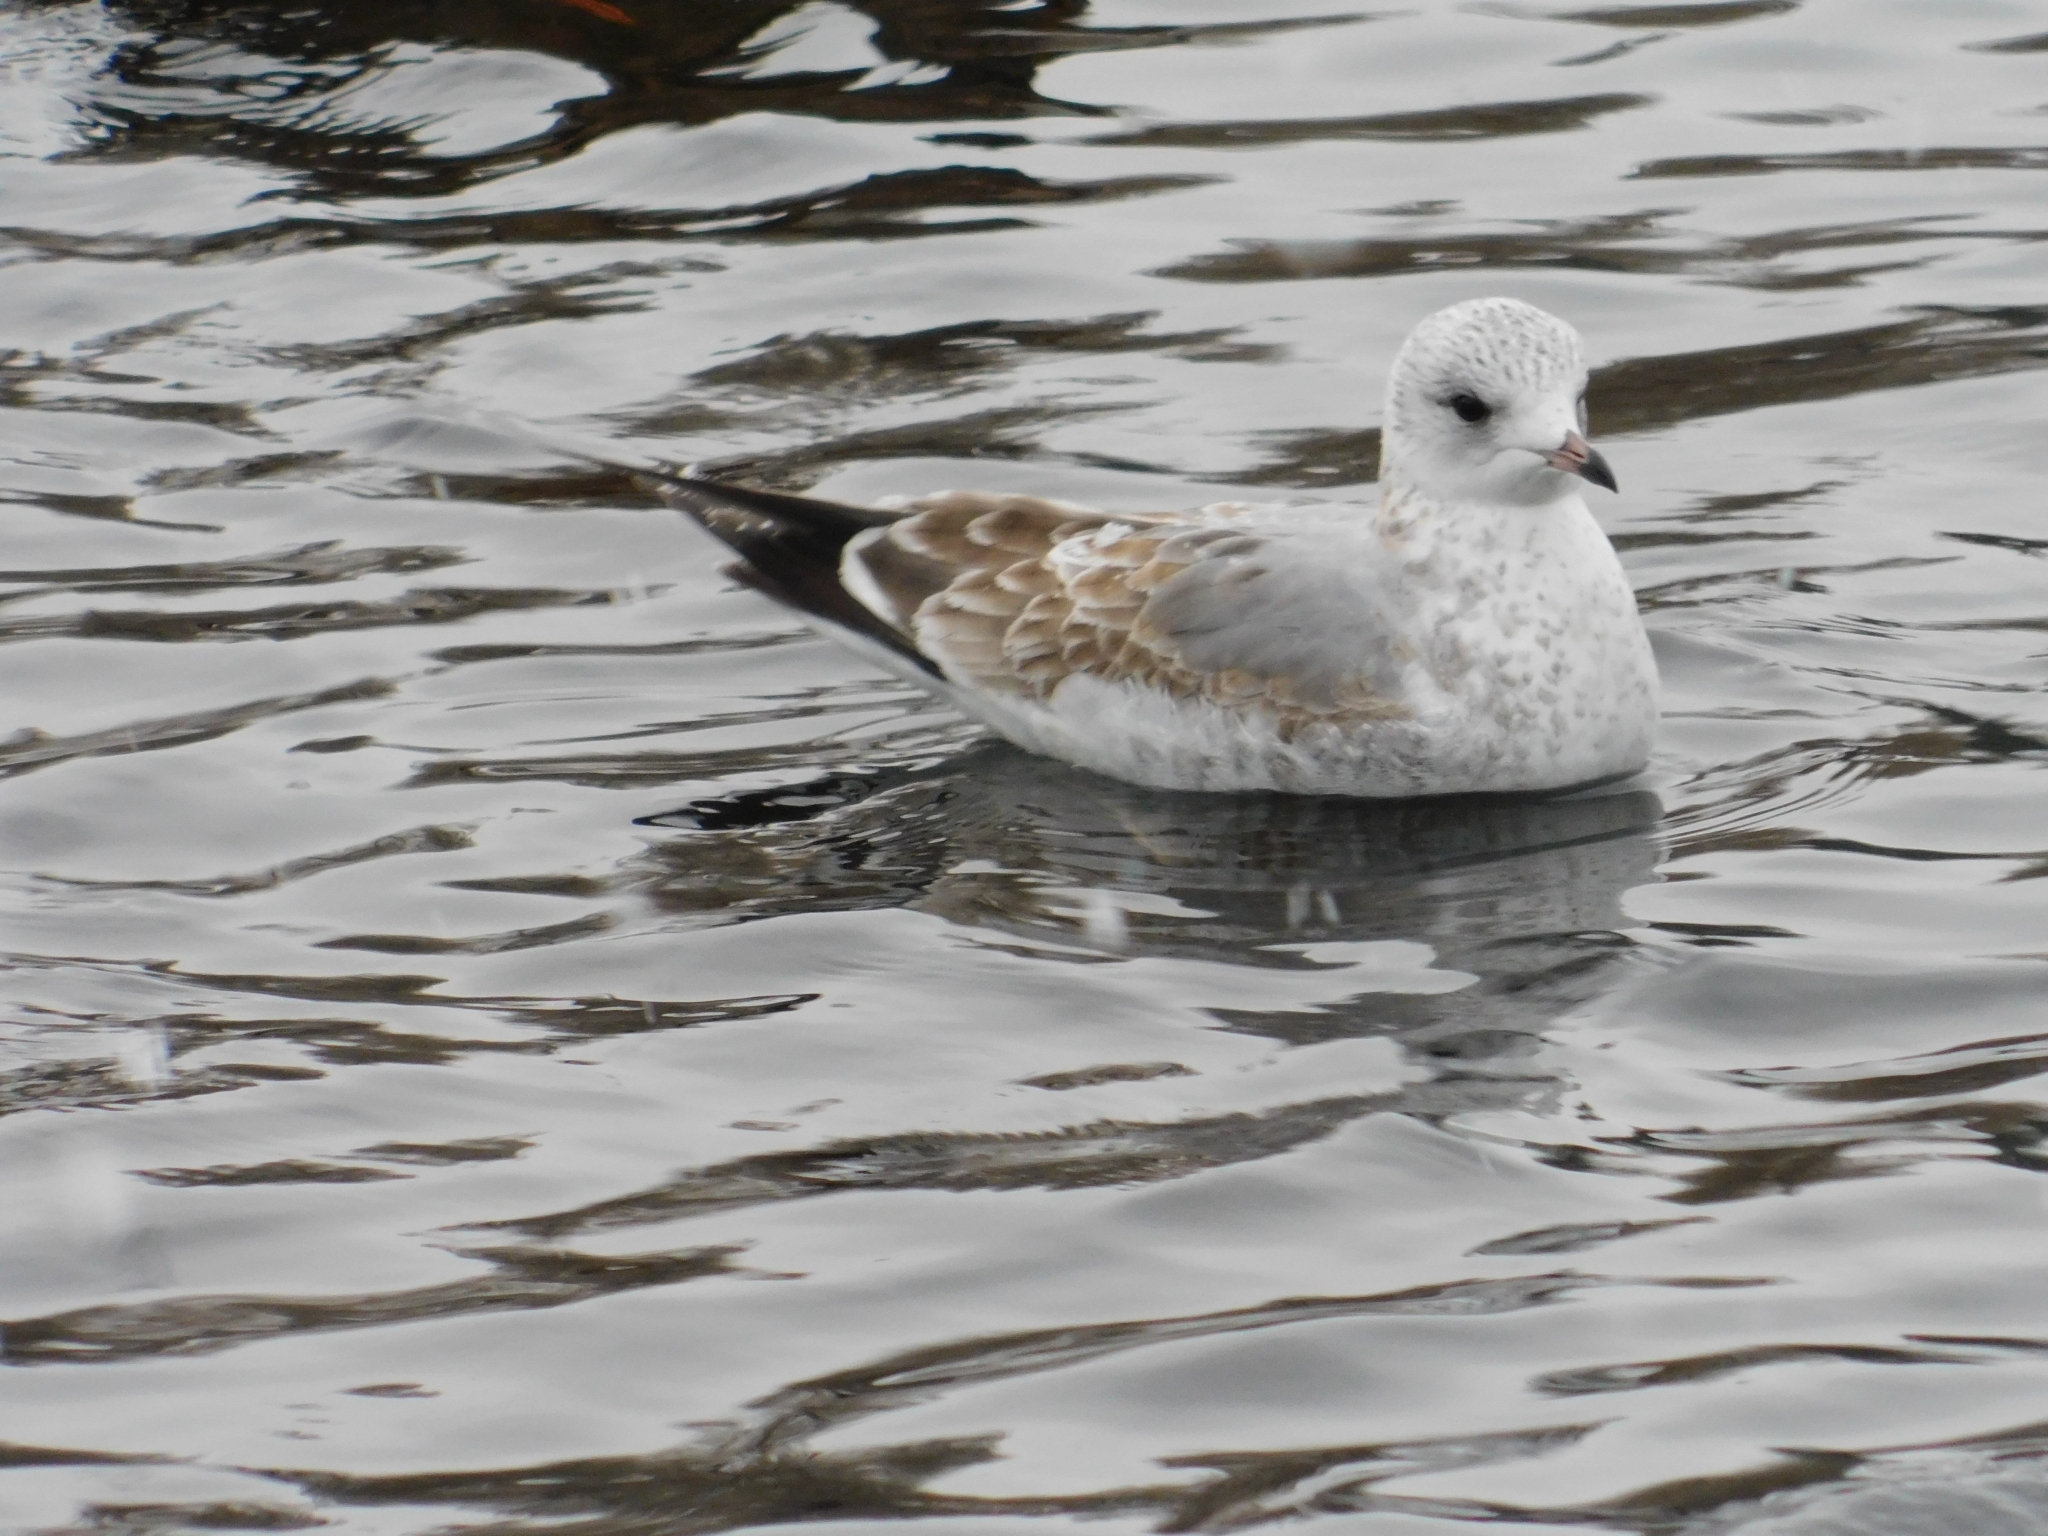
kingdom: Animalia
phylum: Chordata
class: Aves
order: Charadriiformes
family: Laridae
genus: Larus
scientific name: Larus canus
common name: Mew gull
